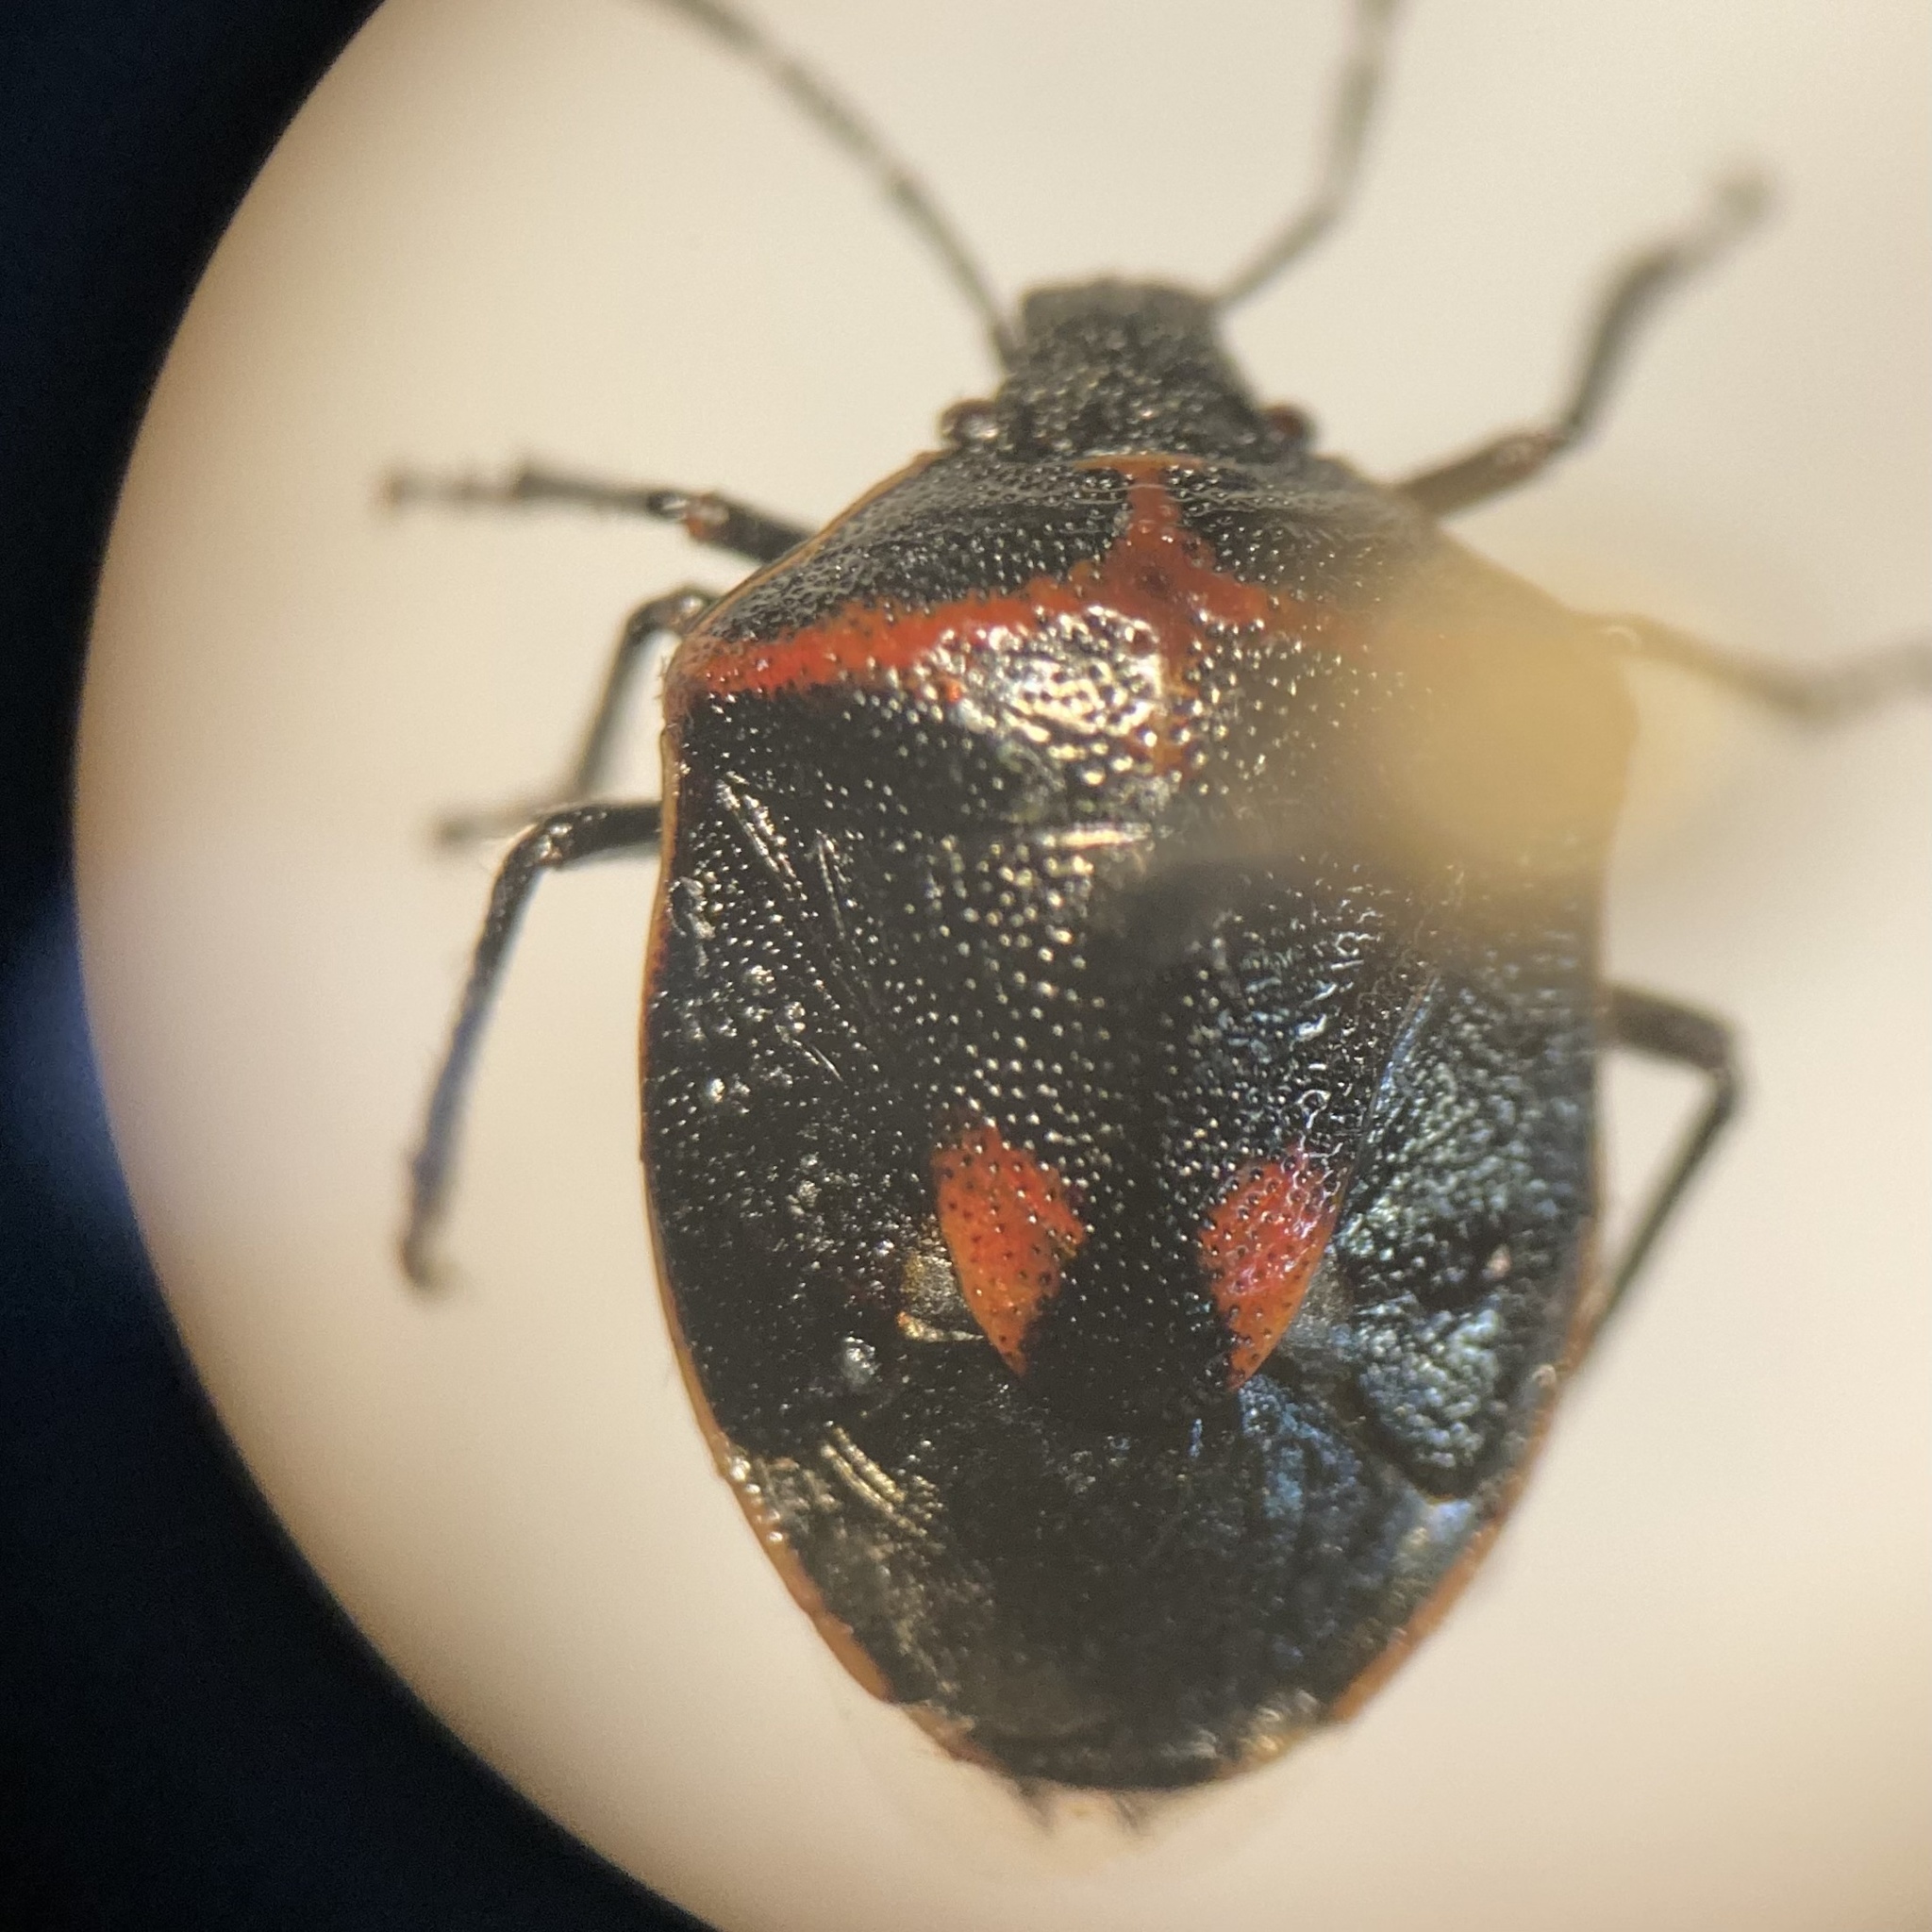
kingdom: Animalia
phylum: Arthropoda
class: Insecta
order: Hemiptera
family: Pentatomidae
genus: Cosmopepla
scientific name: Cosmopepla lintneriana
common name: Twice-stabbed stink bug
